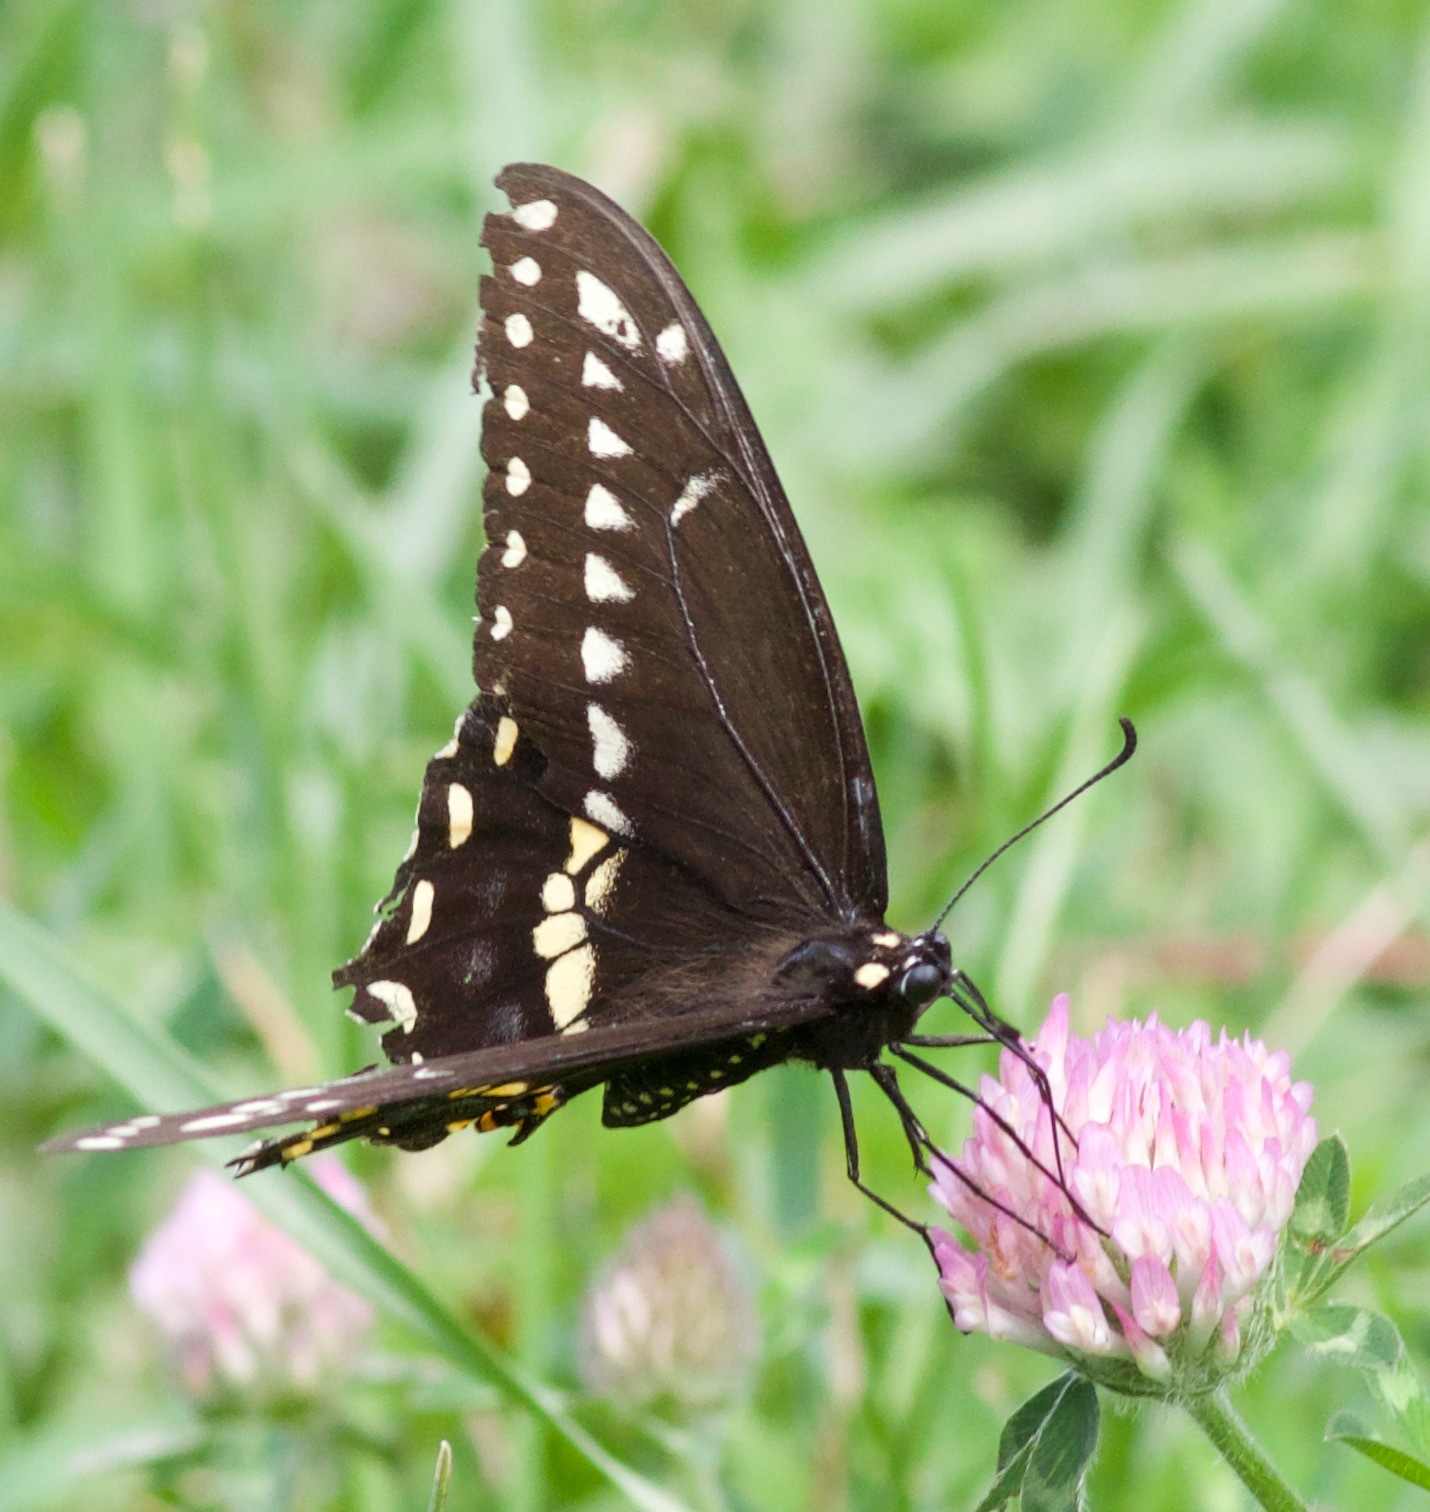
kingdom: Animalia
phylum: Arthropoda
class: Insecta
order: Lepidoptera
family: Papilionidae
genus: Papilio
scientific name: Papilio polyxenes
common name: Black swallowtail
